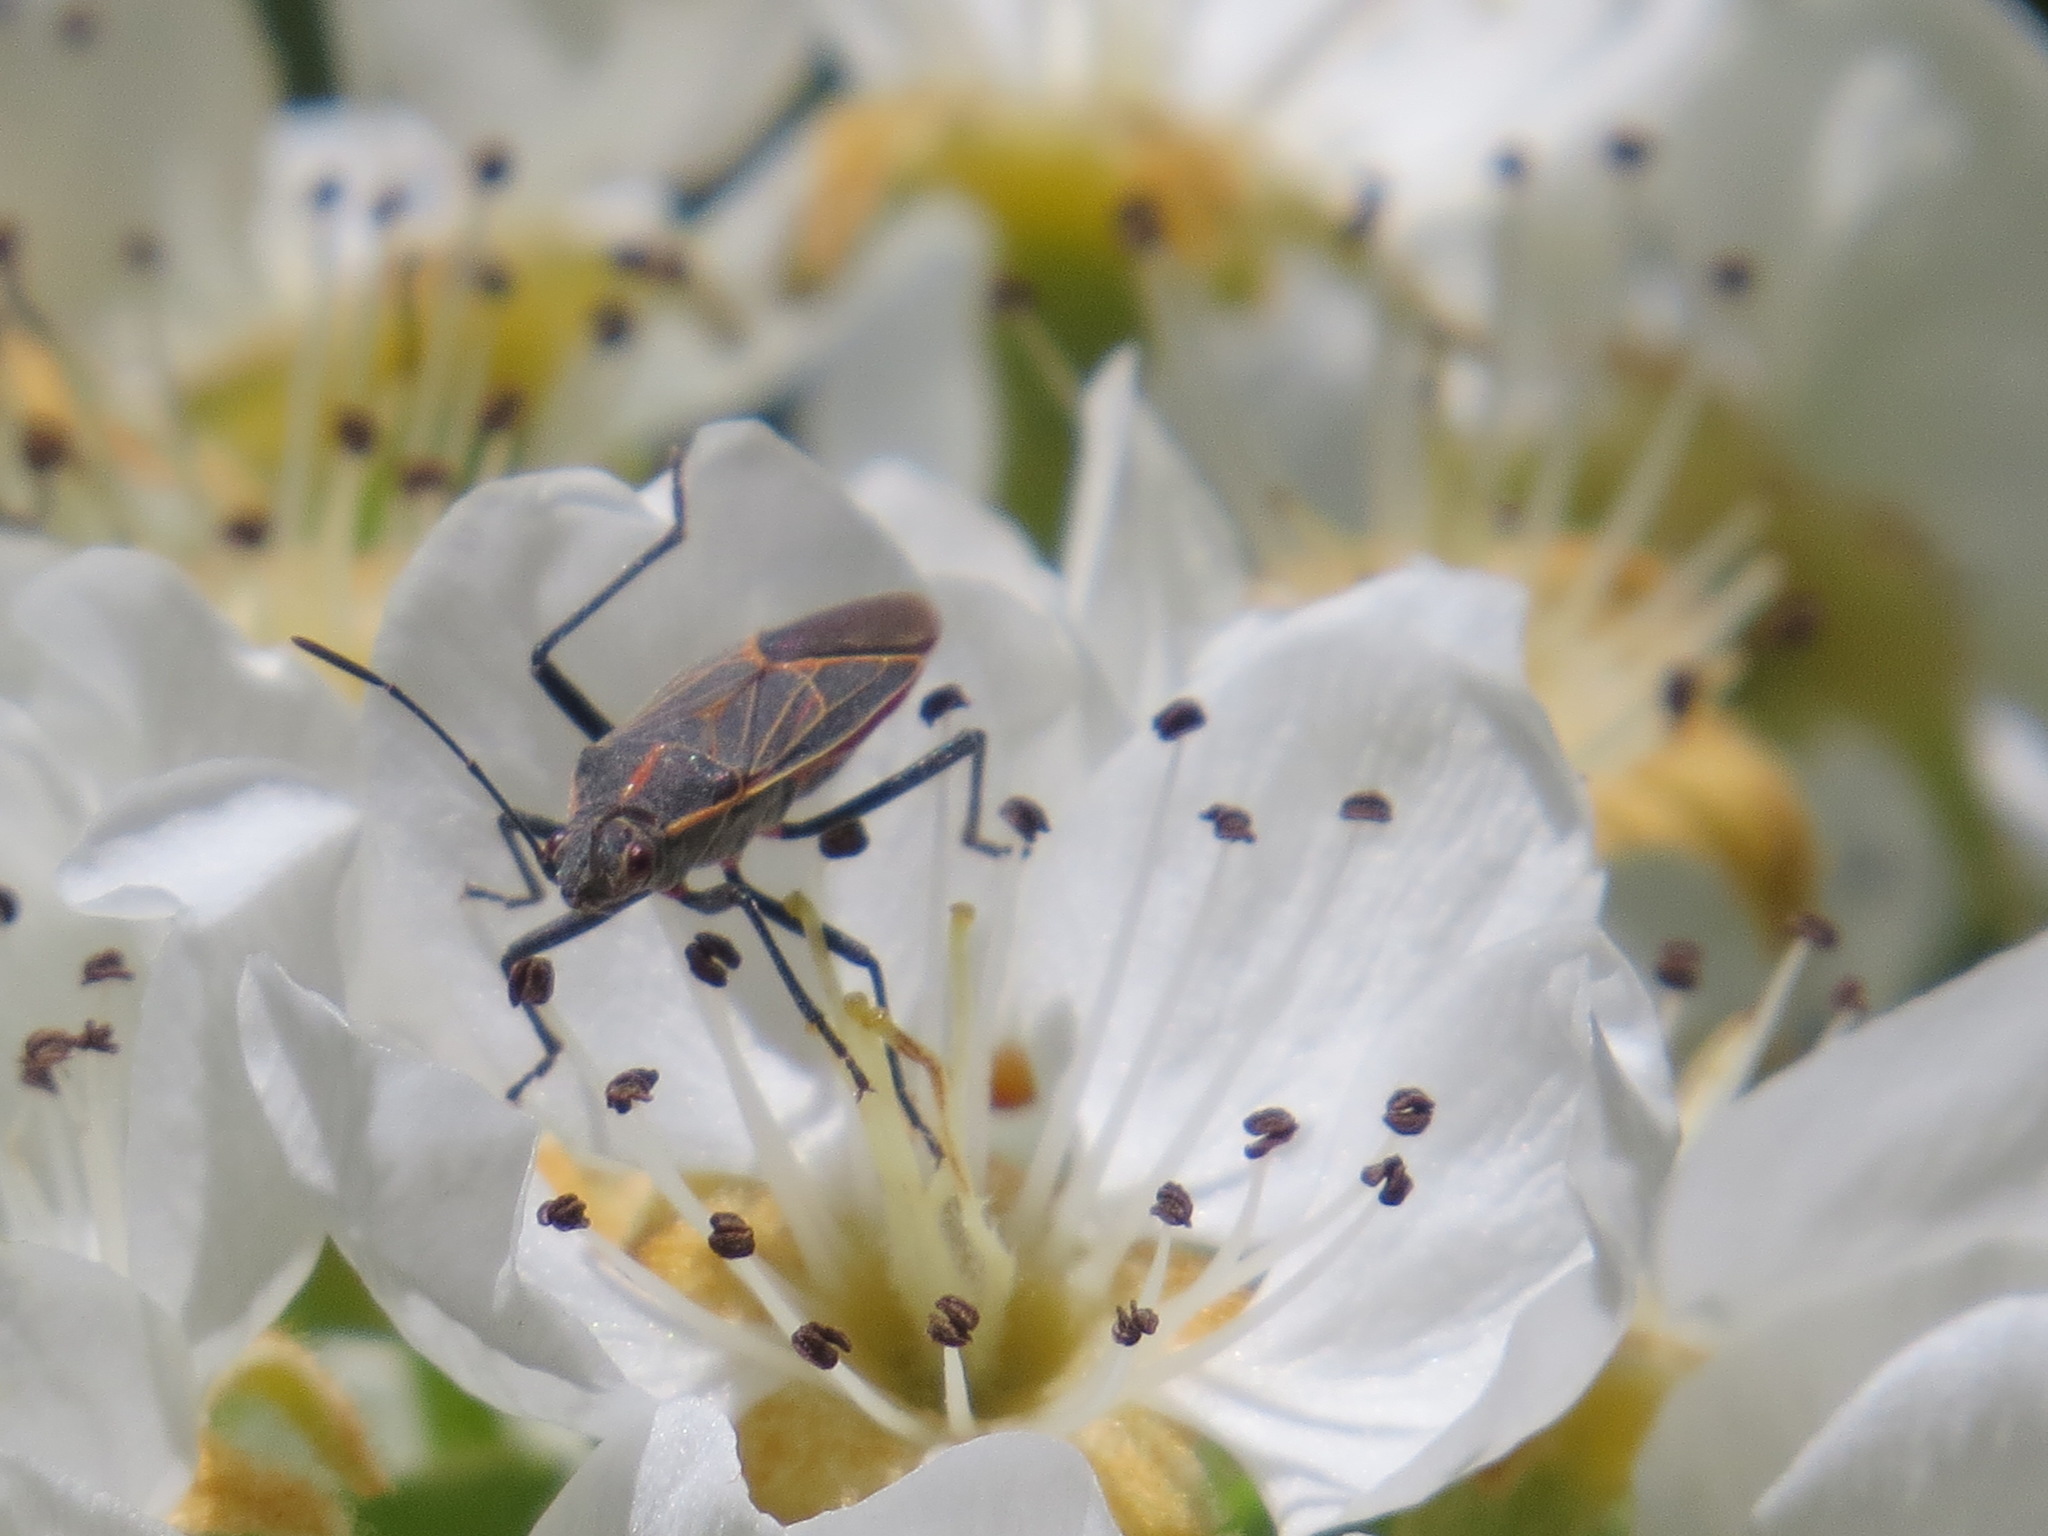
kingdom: Animalia
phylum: Arthropoda
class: Insecta
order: Hemiptera
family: Rhopalidae
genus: Boisea
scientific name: Boisea rubrolineata
